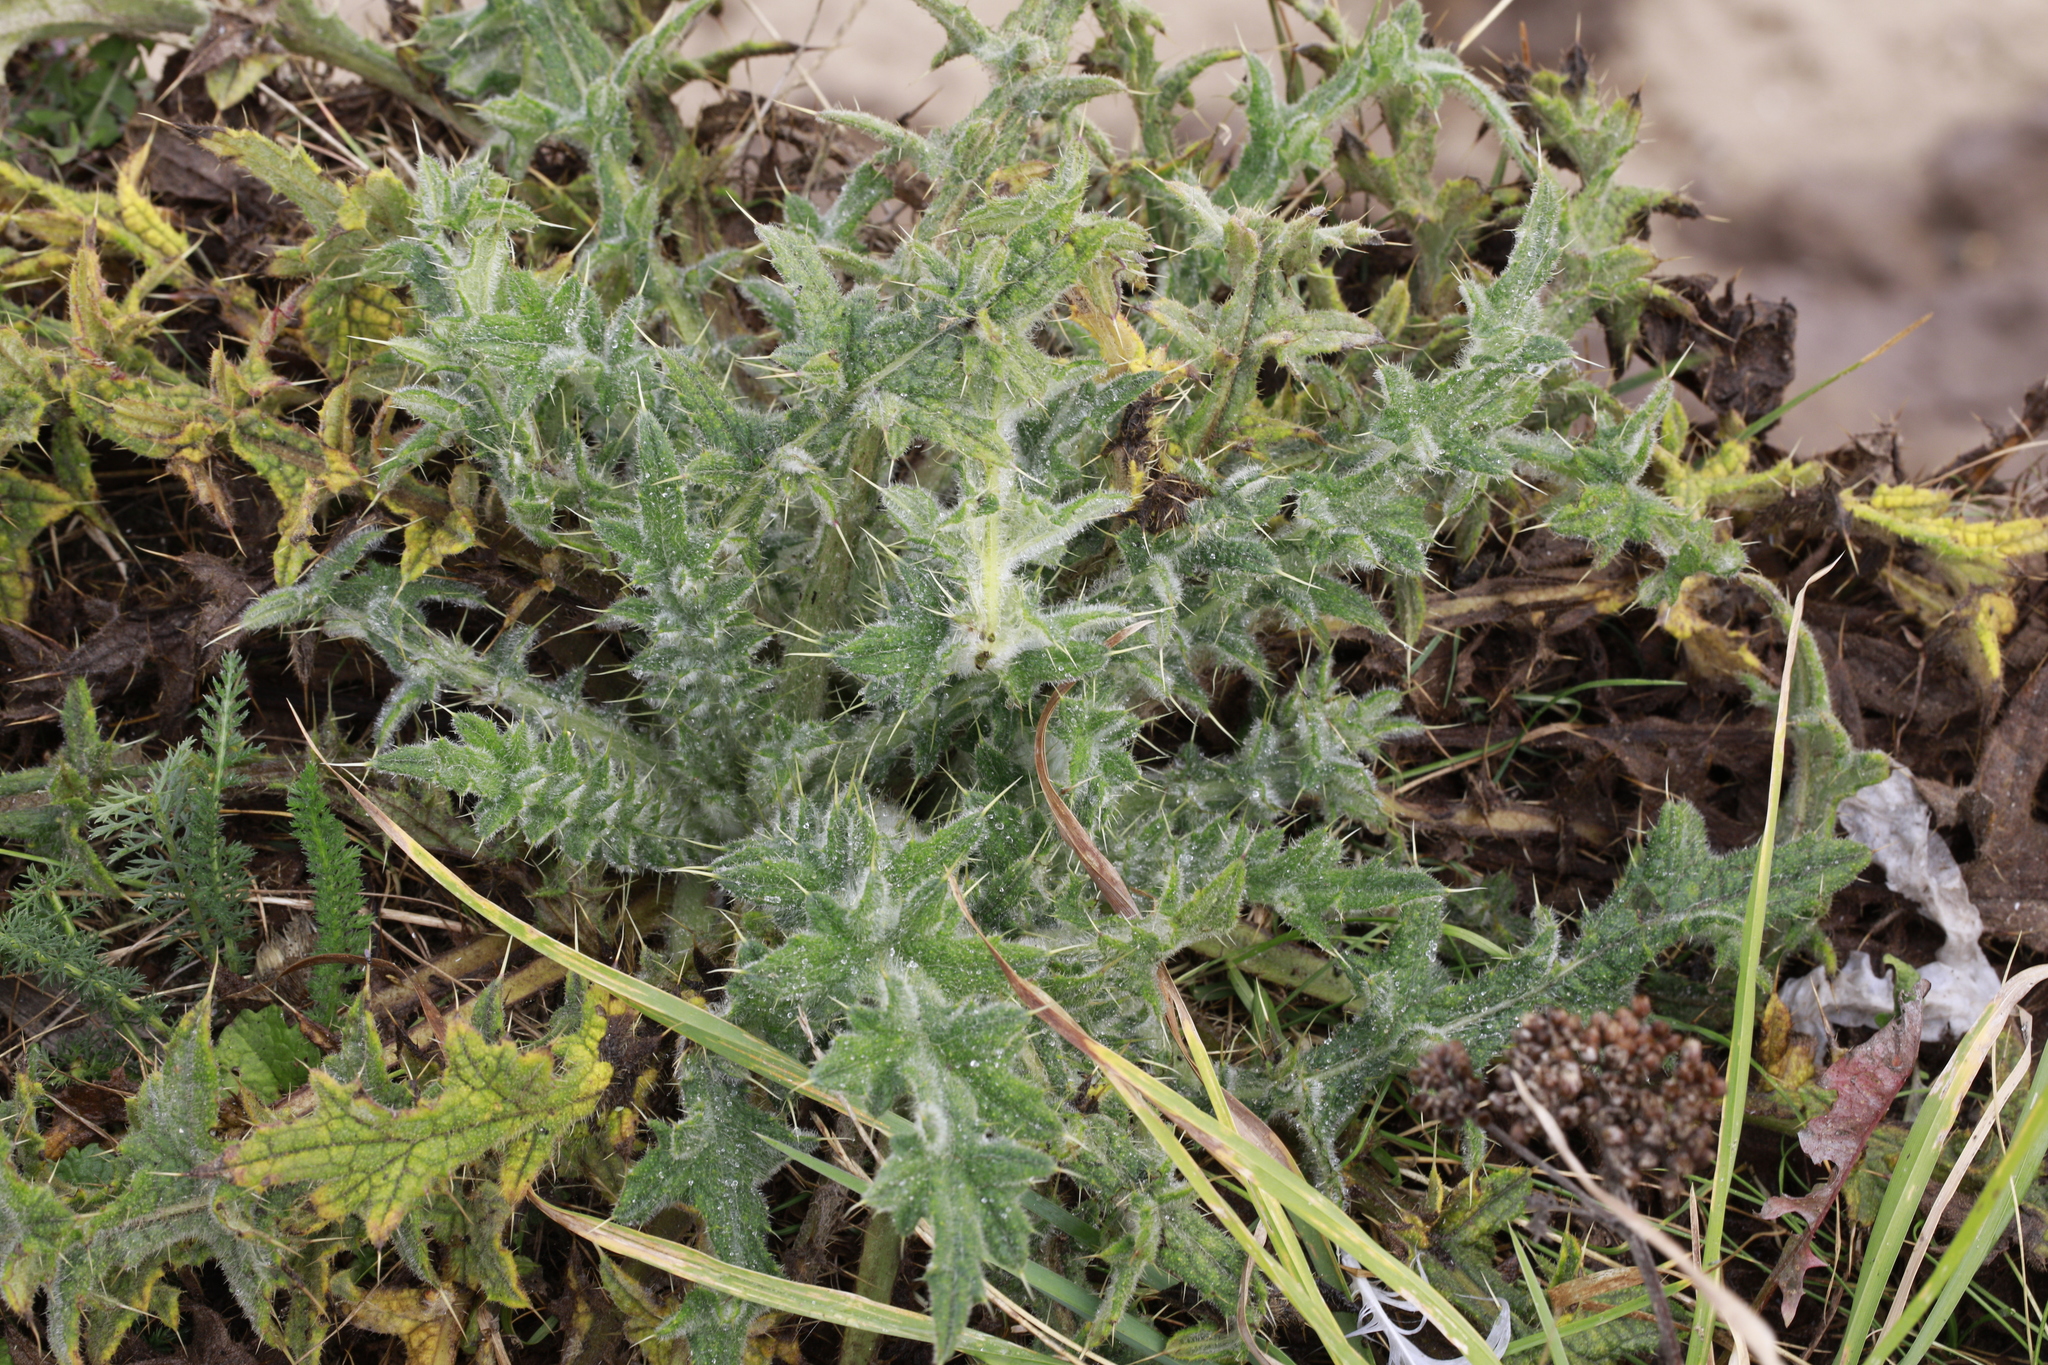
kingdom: Plantae
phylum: Tracheophyta
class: Magnoliopsida
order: Asterales
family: Asteraceae
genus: Cirsium
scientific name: Cirsium vulgare
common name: Bull thistle
